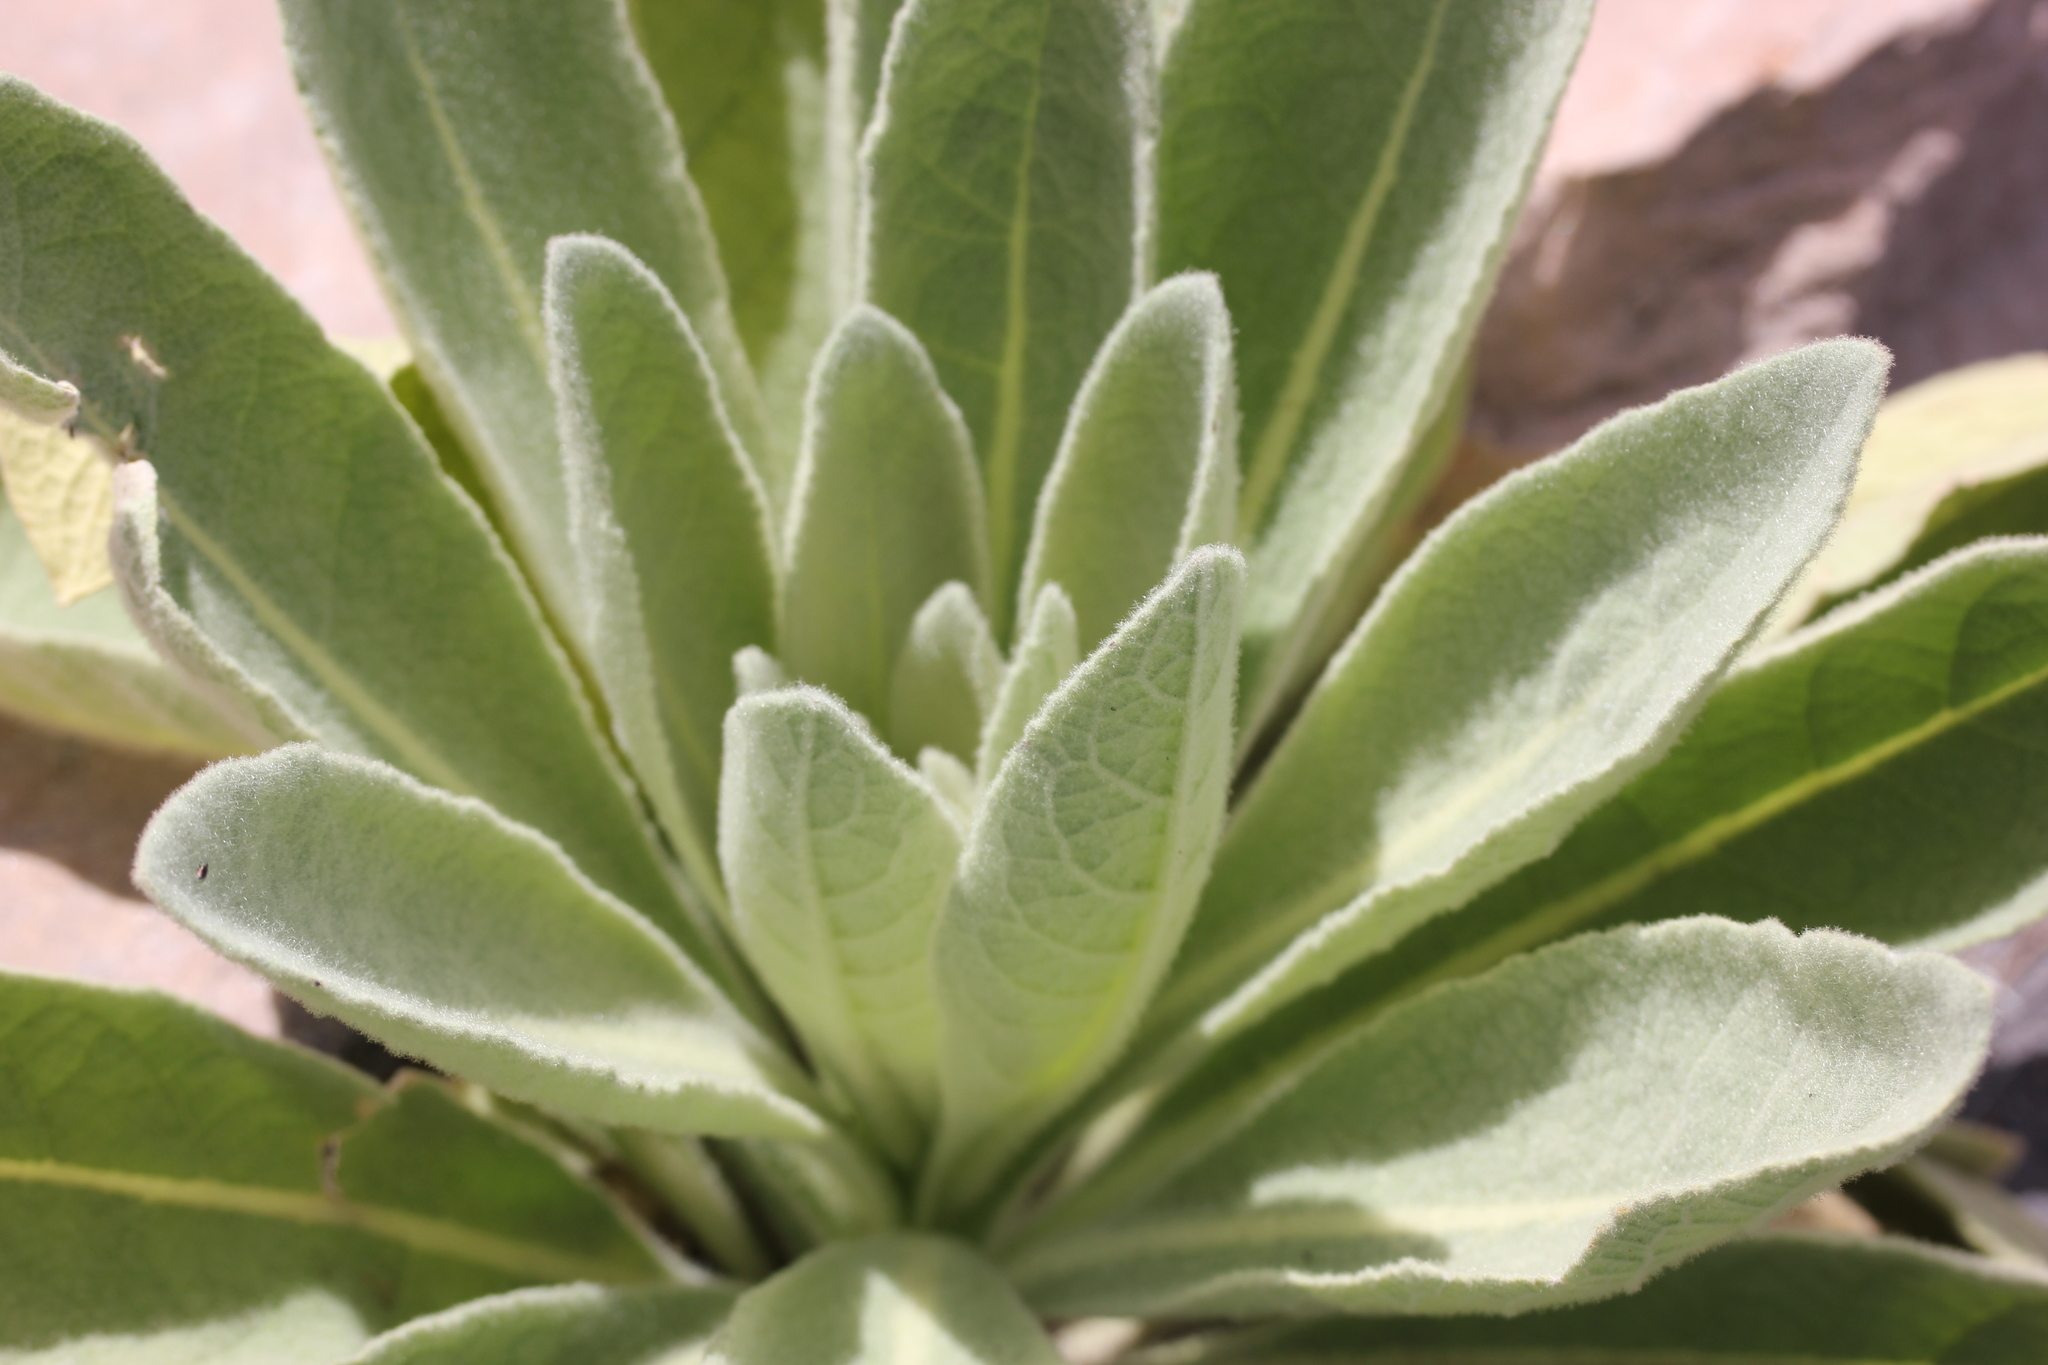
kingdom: Plantae
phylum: Tracheophyta
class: Magnoliopsida
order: Lamiales
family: Scrophulariaceae
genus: Verbascum
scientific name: Verbascum thapsus
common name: Common mullein
